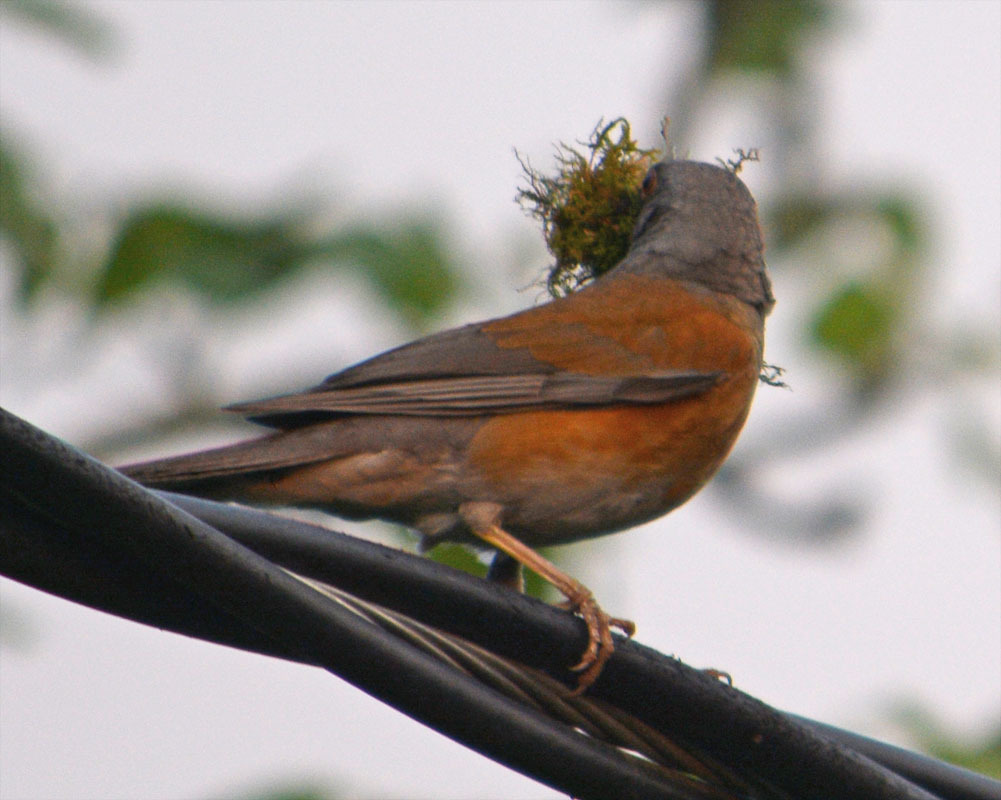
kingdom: Animalia
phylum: Chordata
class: Aves
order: Passeriformes
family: Turdidae
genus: Turdus
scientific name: Turdus rufopalliatus
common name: Rufous-backed robin
